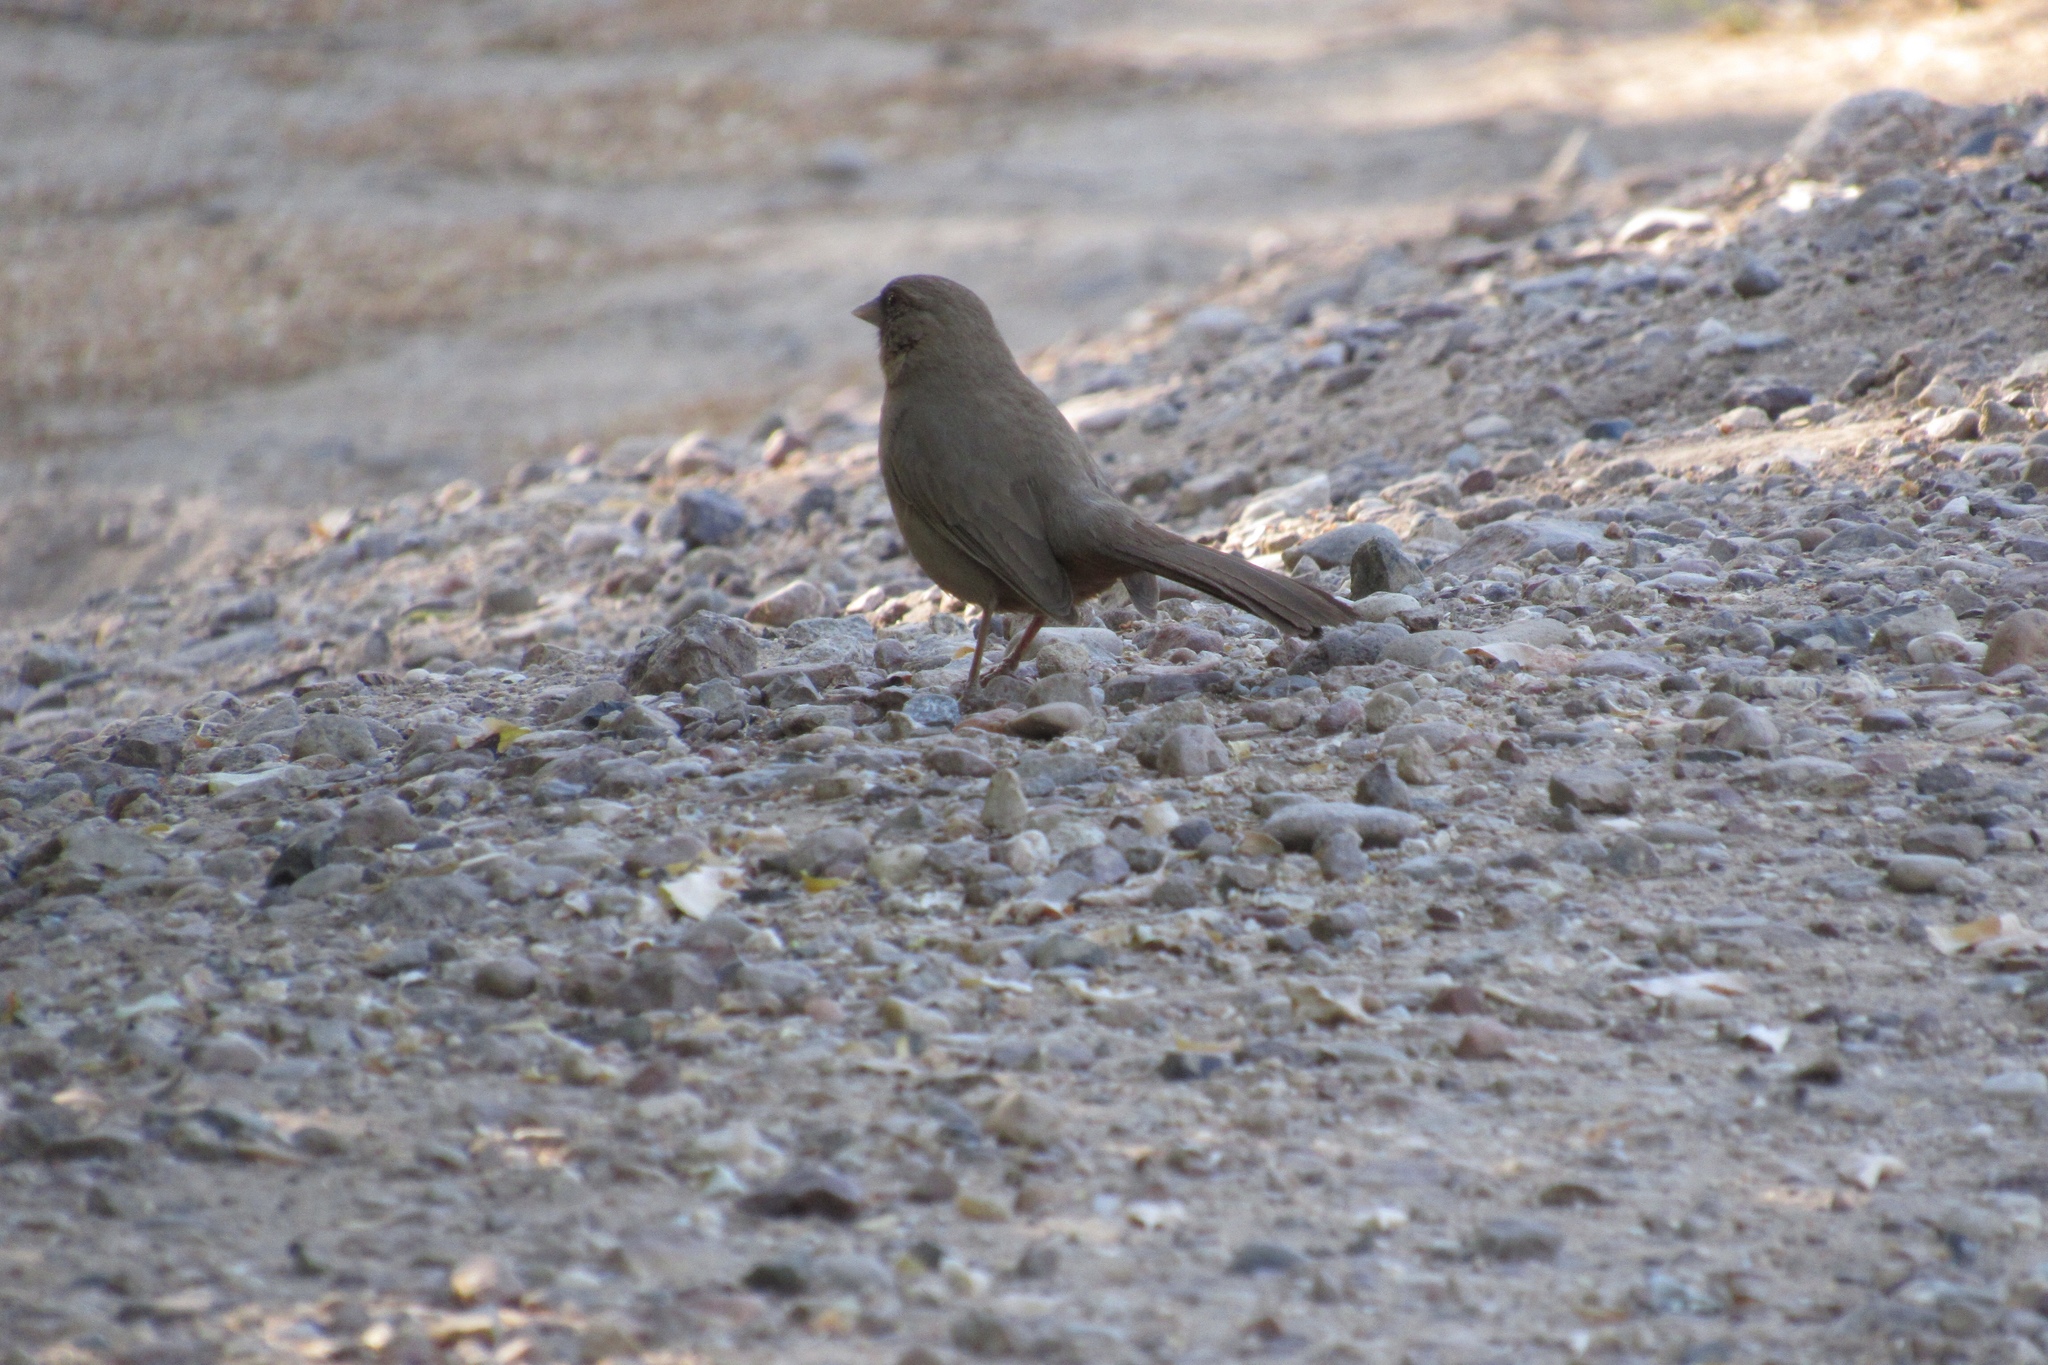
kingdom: Animalia
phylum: Chordata
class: Aves
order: Passeriformes
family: Passerellidae
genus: Melozone
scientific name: Melozone aberti
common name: Abert's towhee
